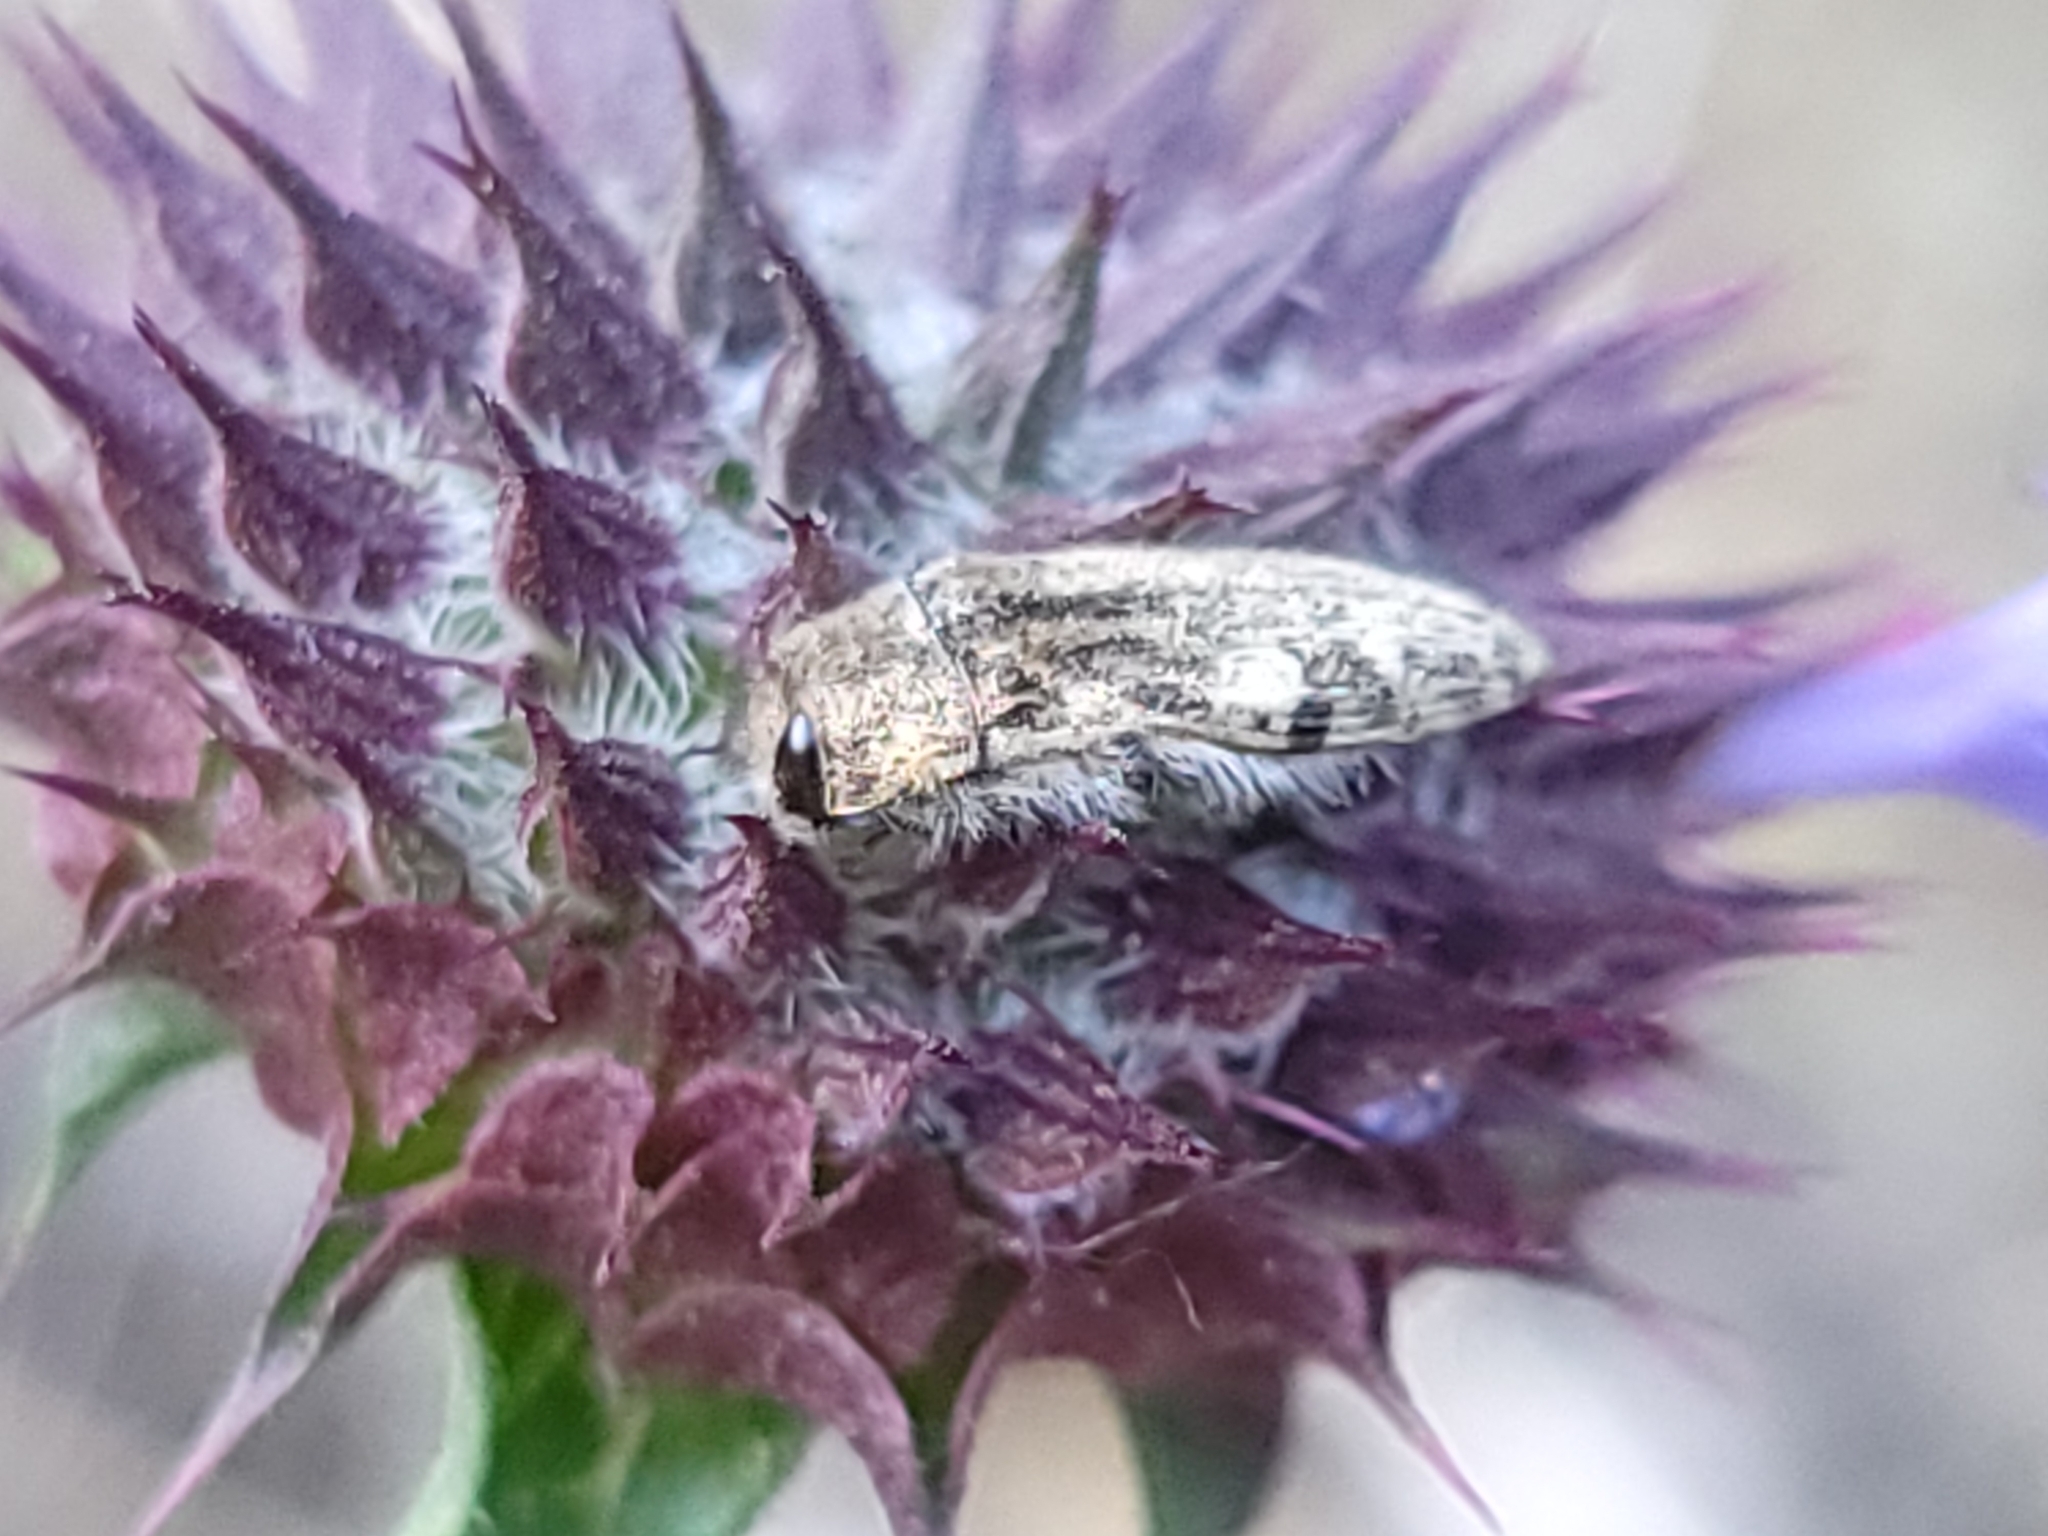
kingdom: Animalia
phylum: Arthropoda
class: Insecta
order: Coleoptera
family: Buprestidae
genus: Acmaeodera
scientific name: Acmaeodera hepburnii
